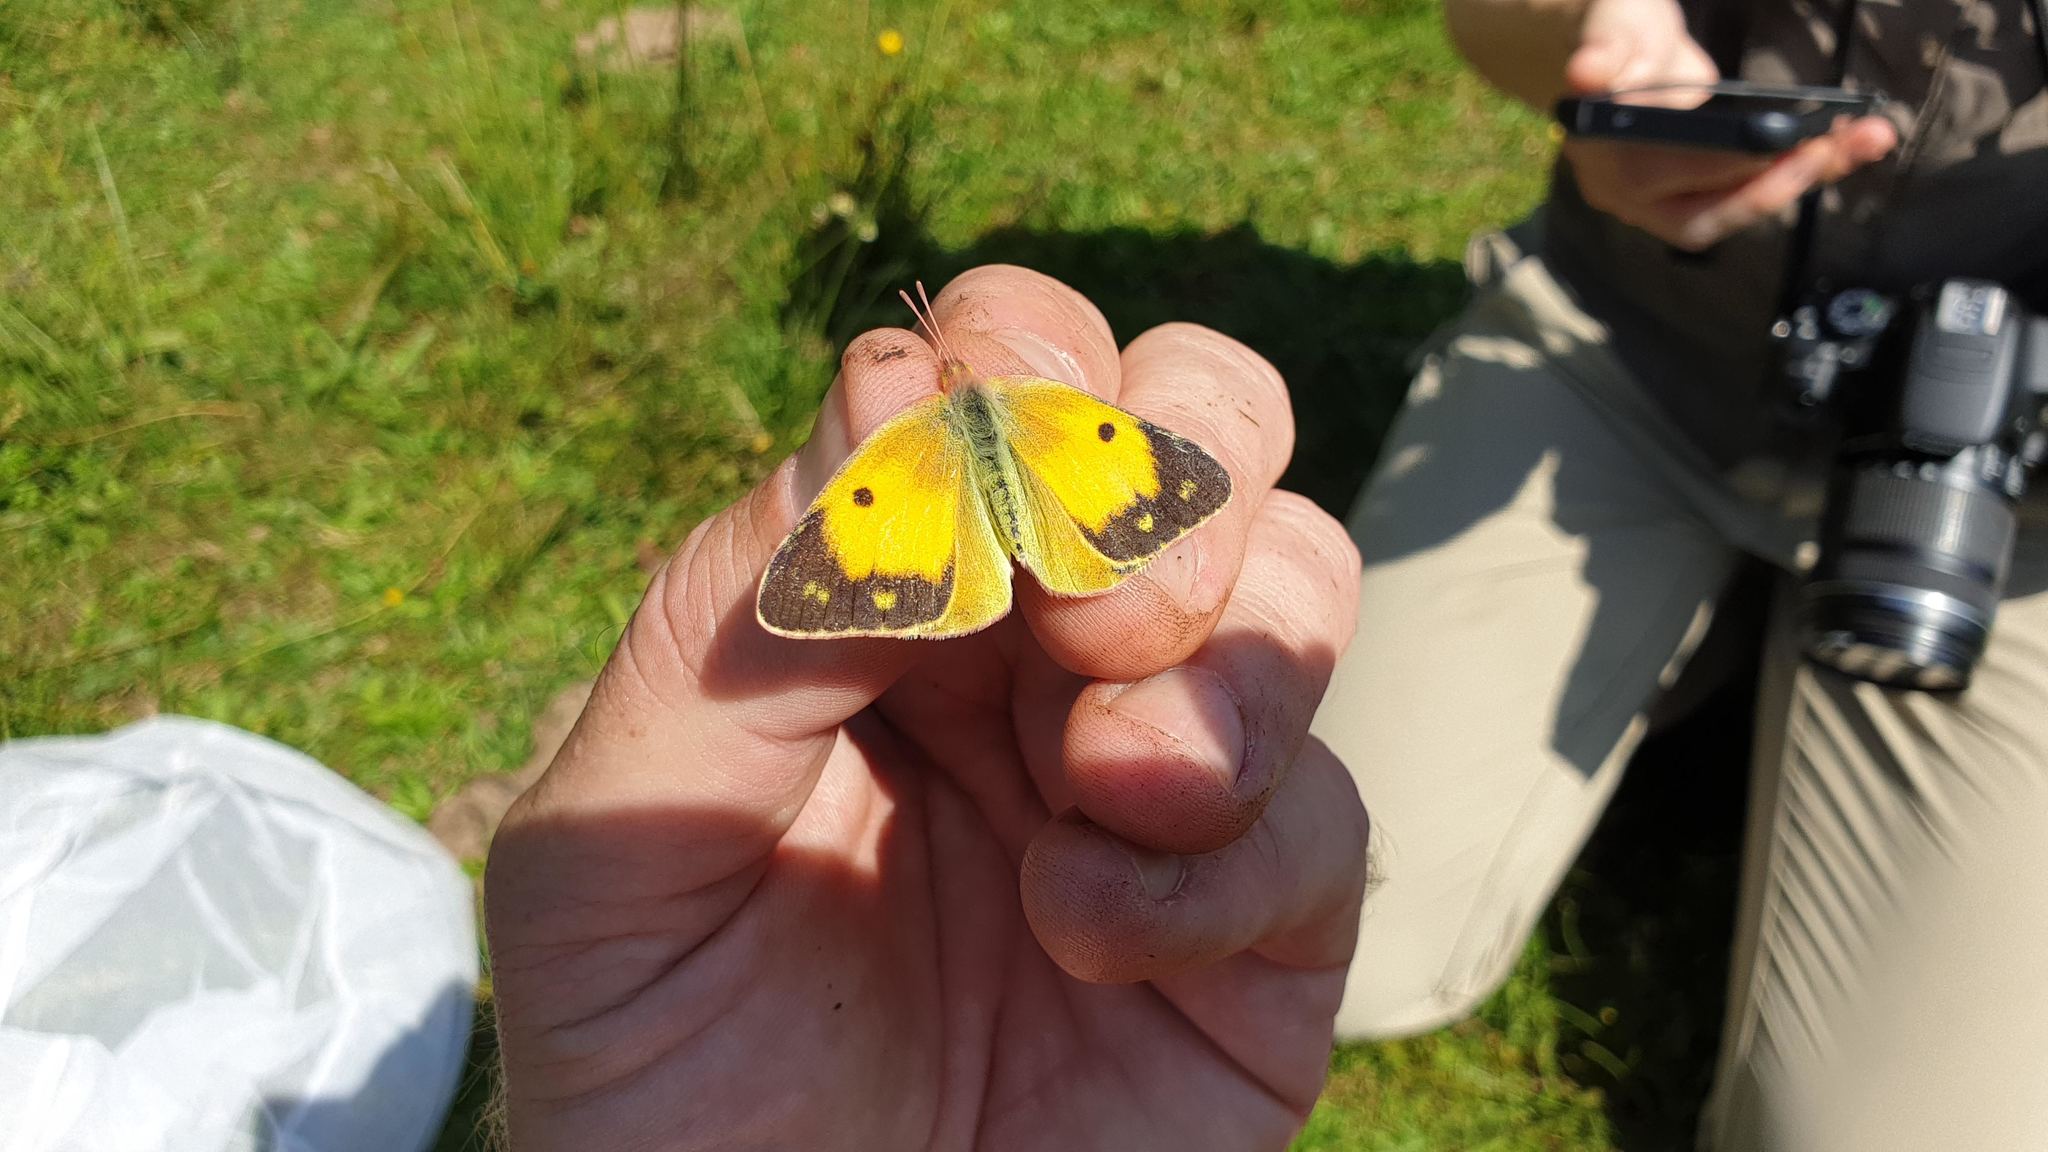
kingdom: Animalia
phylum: Arthropoda
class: Insecta
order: Lepidoptera
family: Pieridae
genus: Colias
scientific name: Colias croceus
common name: Clouded yellow
